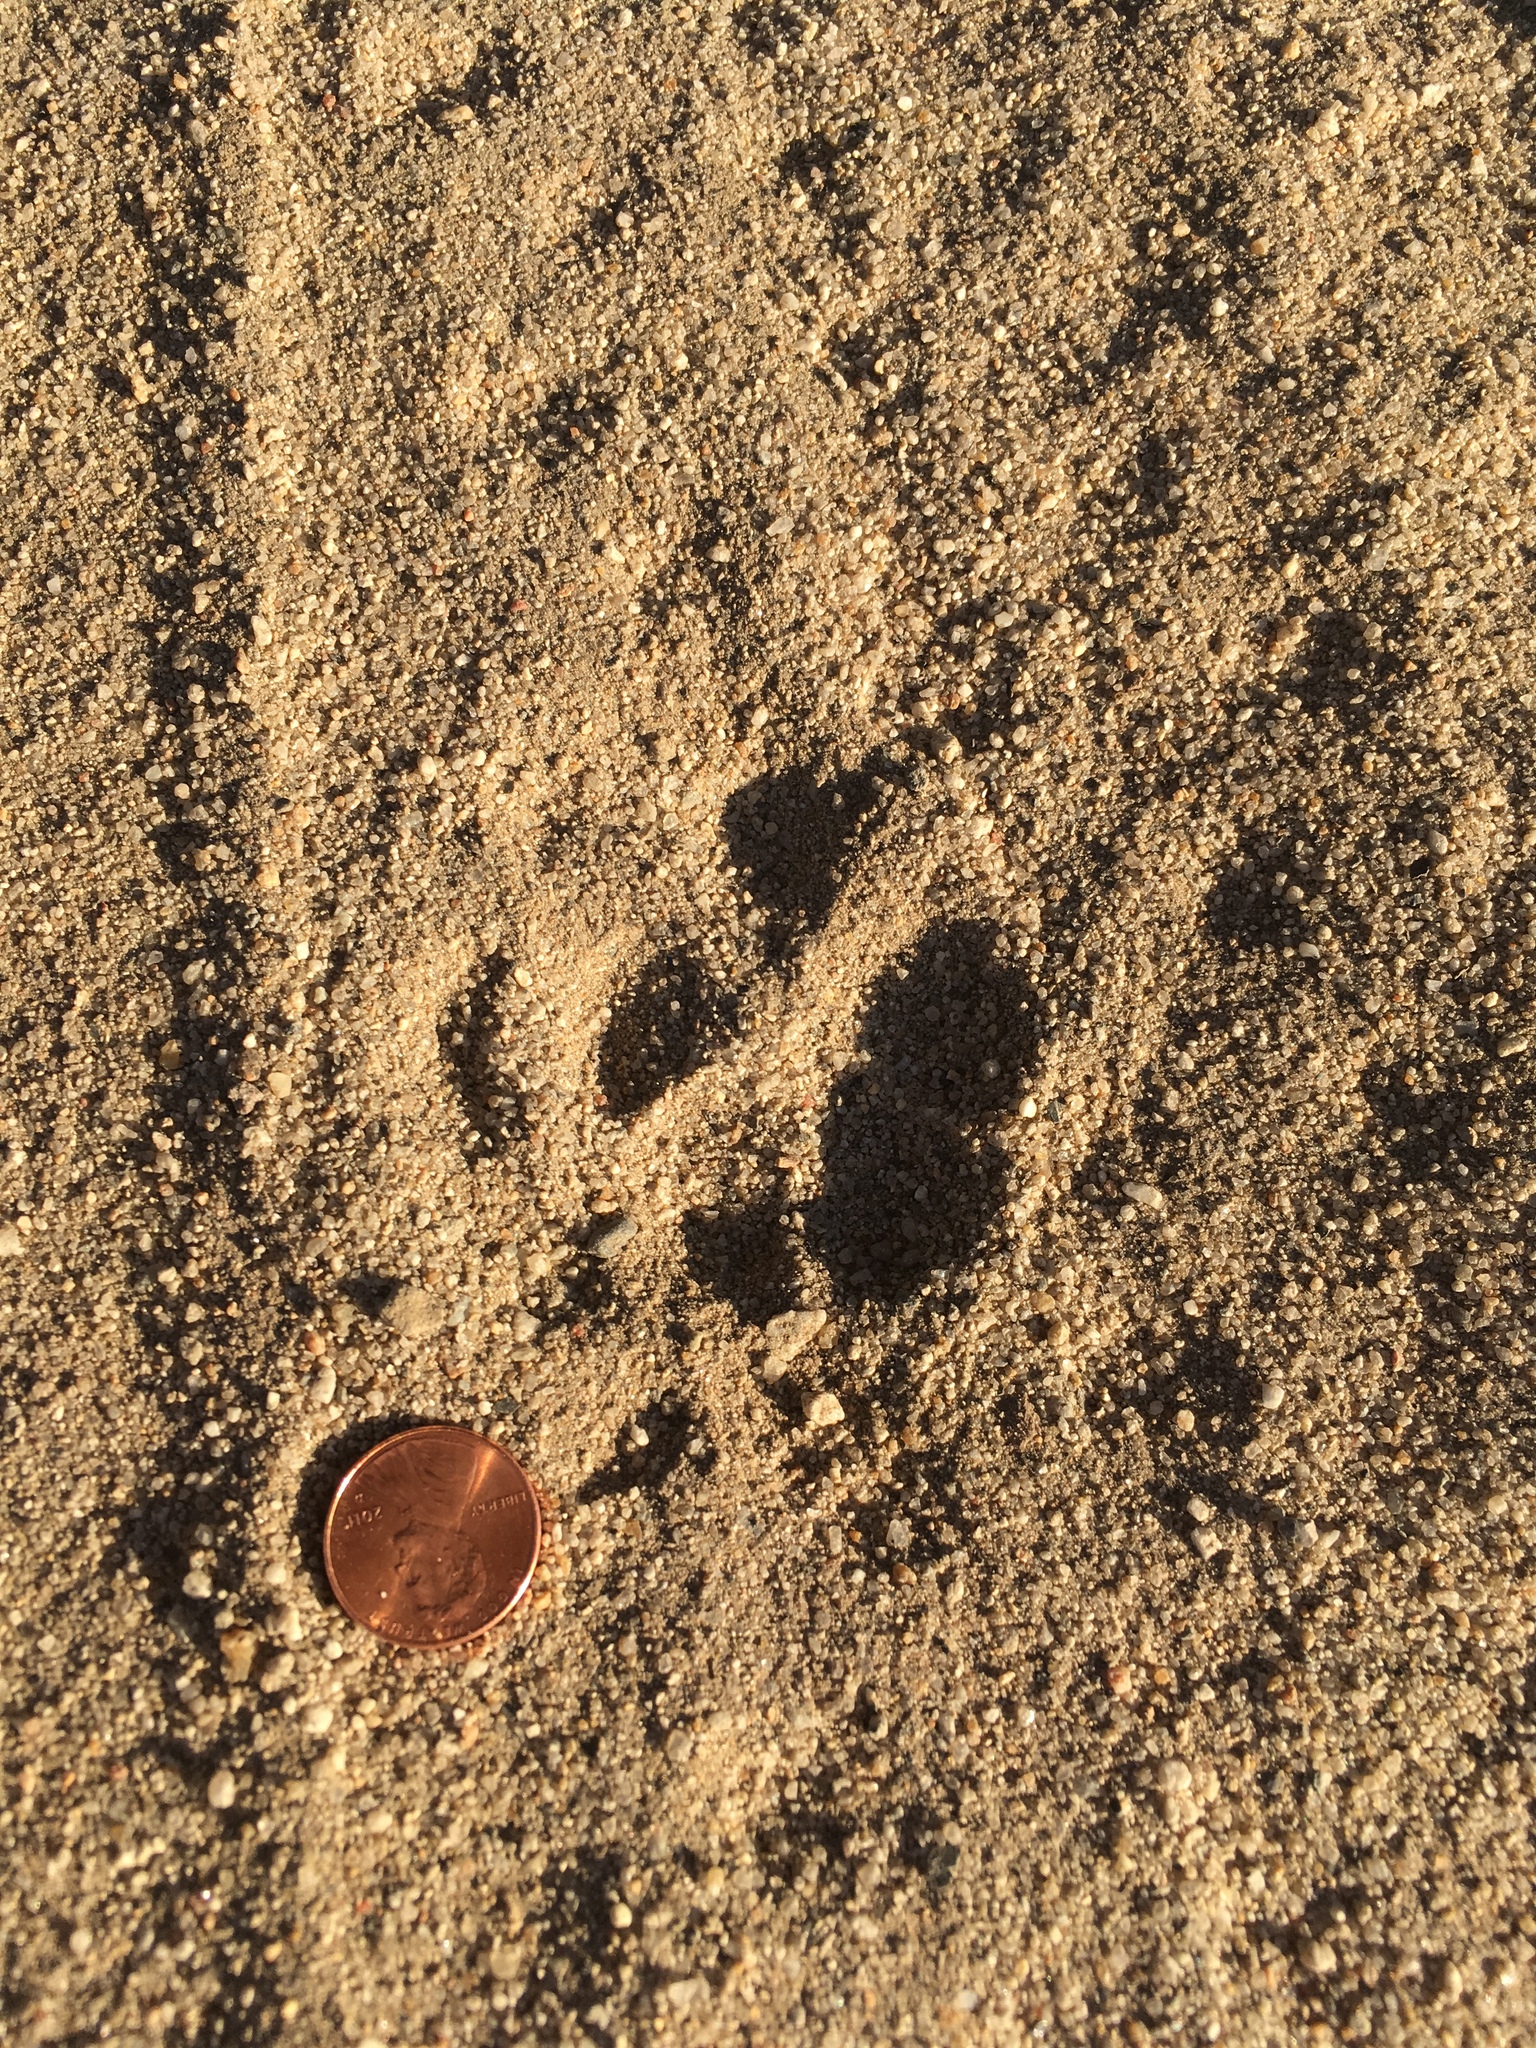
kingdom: Animalia
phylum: Chordata
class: Mammalia
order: Carnivora
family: Canidae
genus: Canis
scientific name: Canis latrans
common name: Coyote
